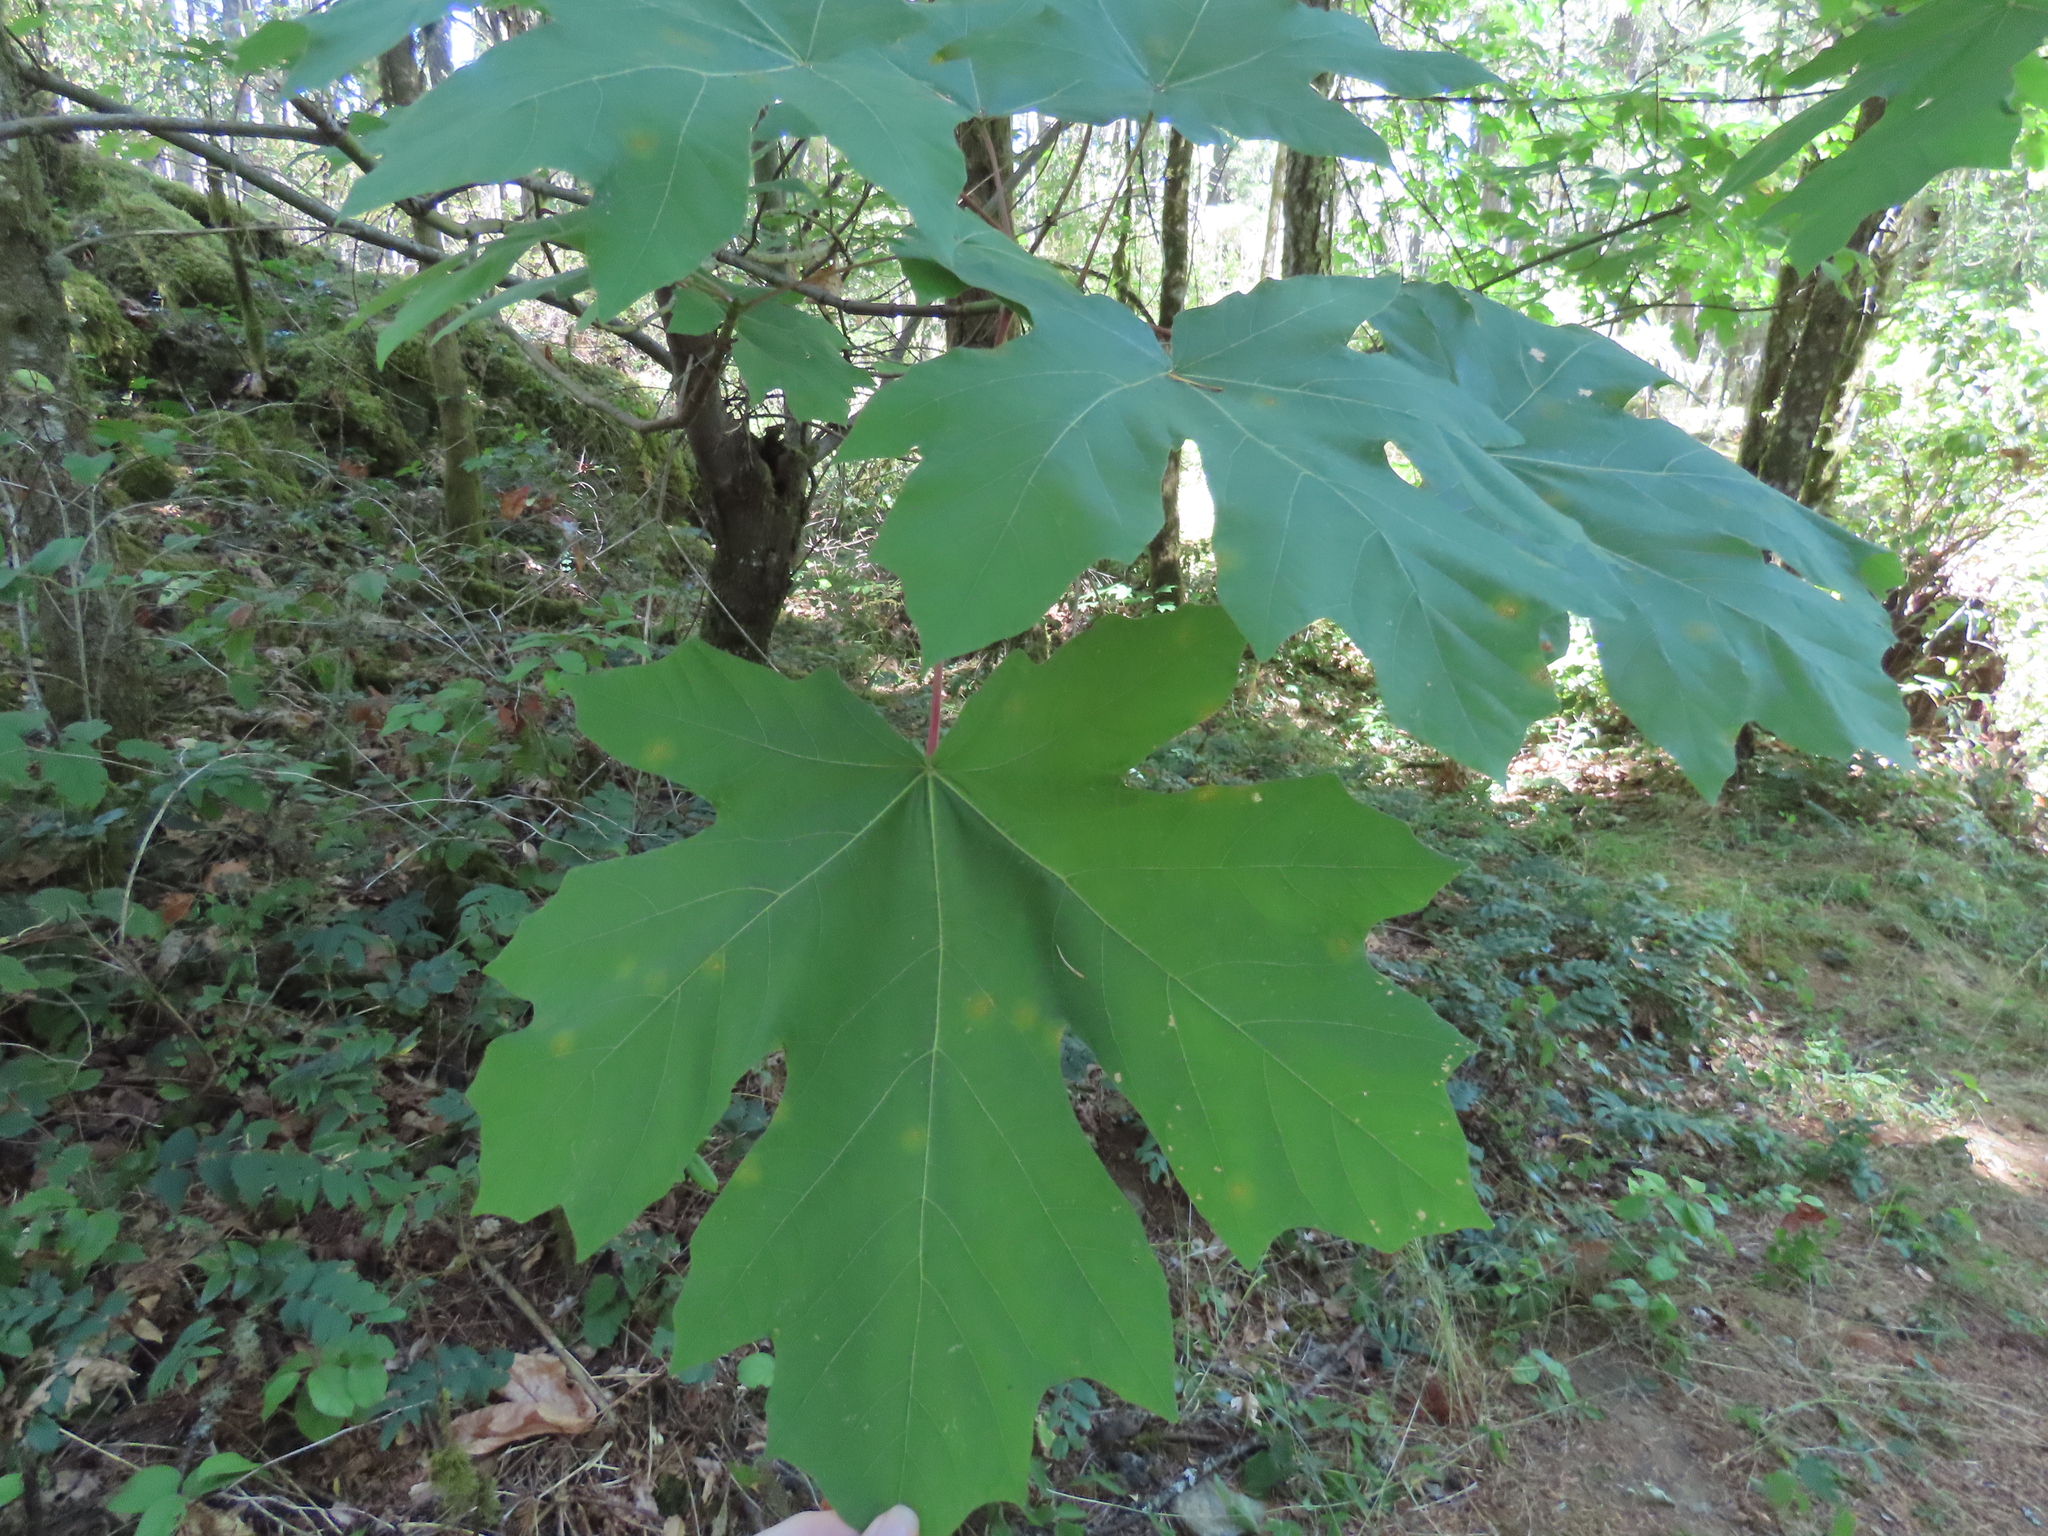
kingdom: Plantae
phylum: Tracheophyta
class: Magnoliopsida
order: Sapindales
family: Sapindaceae
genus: Acer
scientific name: Acer macrophyllum
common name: Oregon maple
